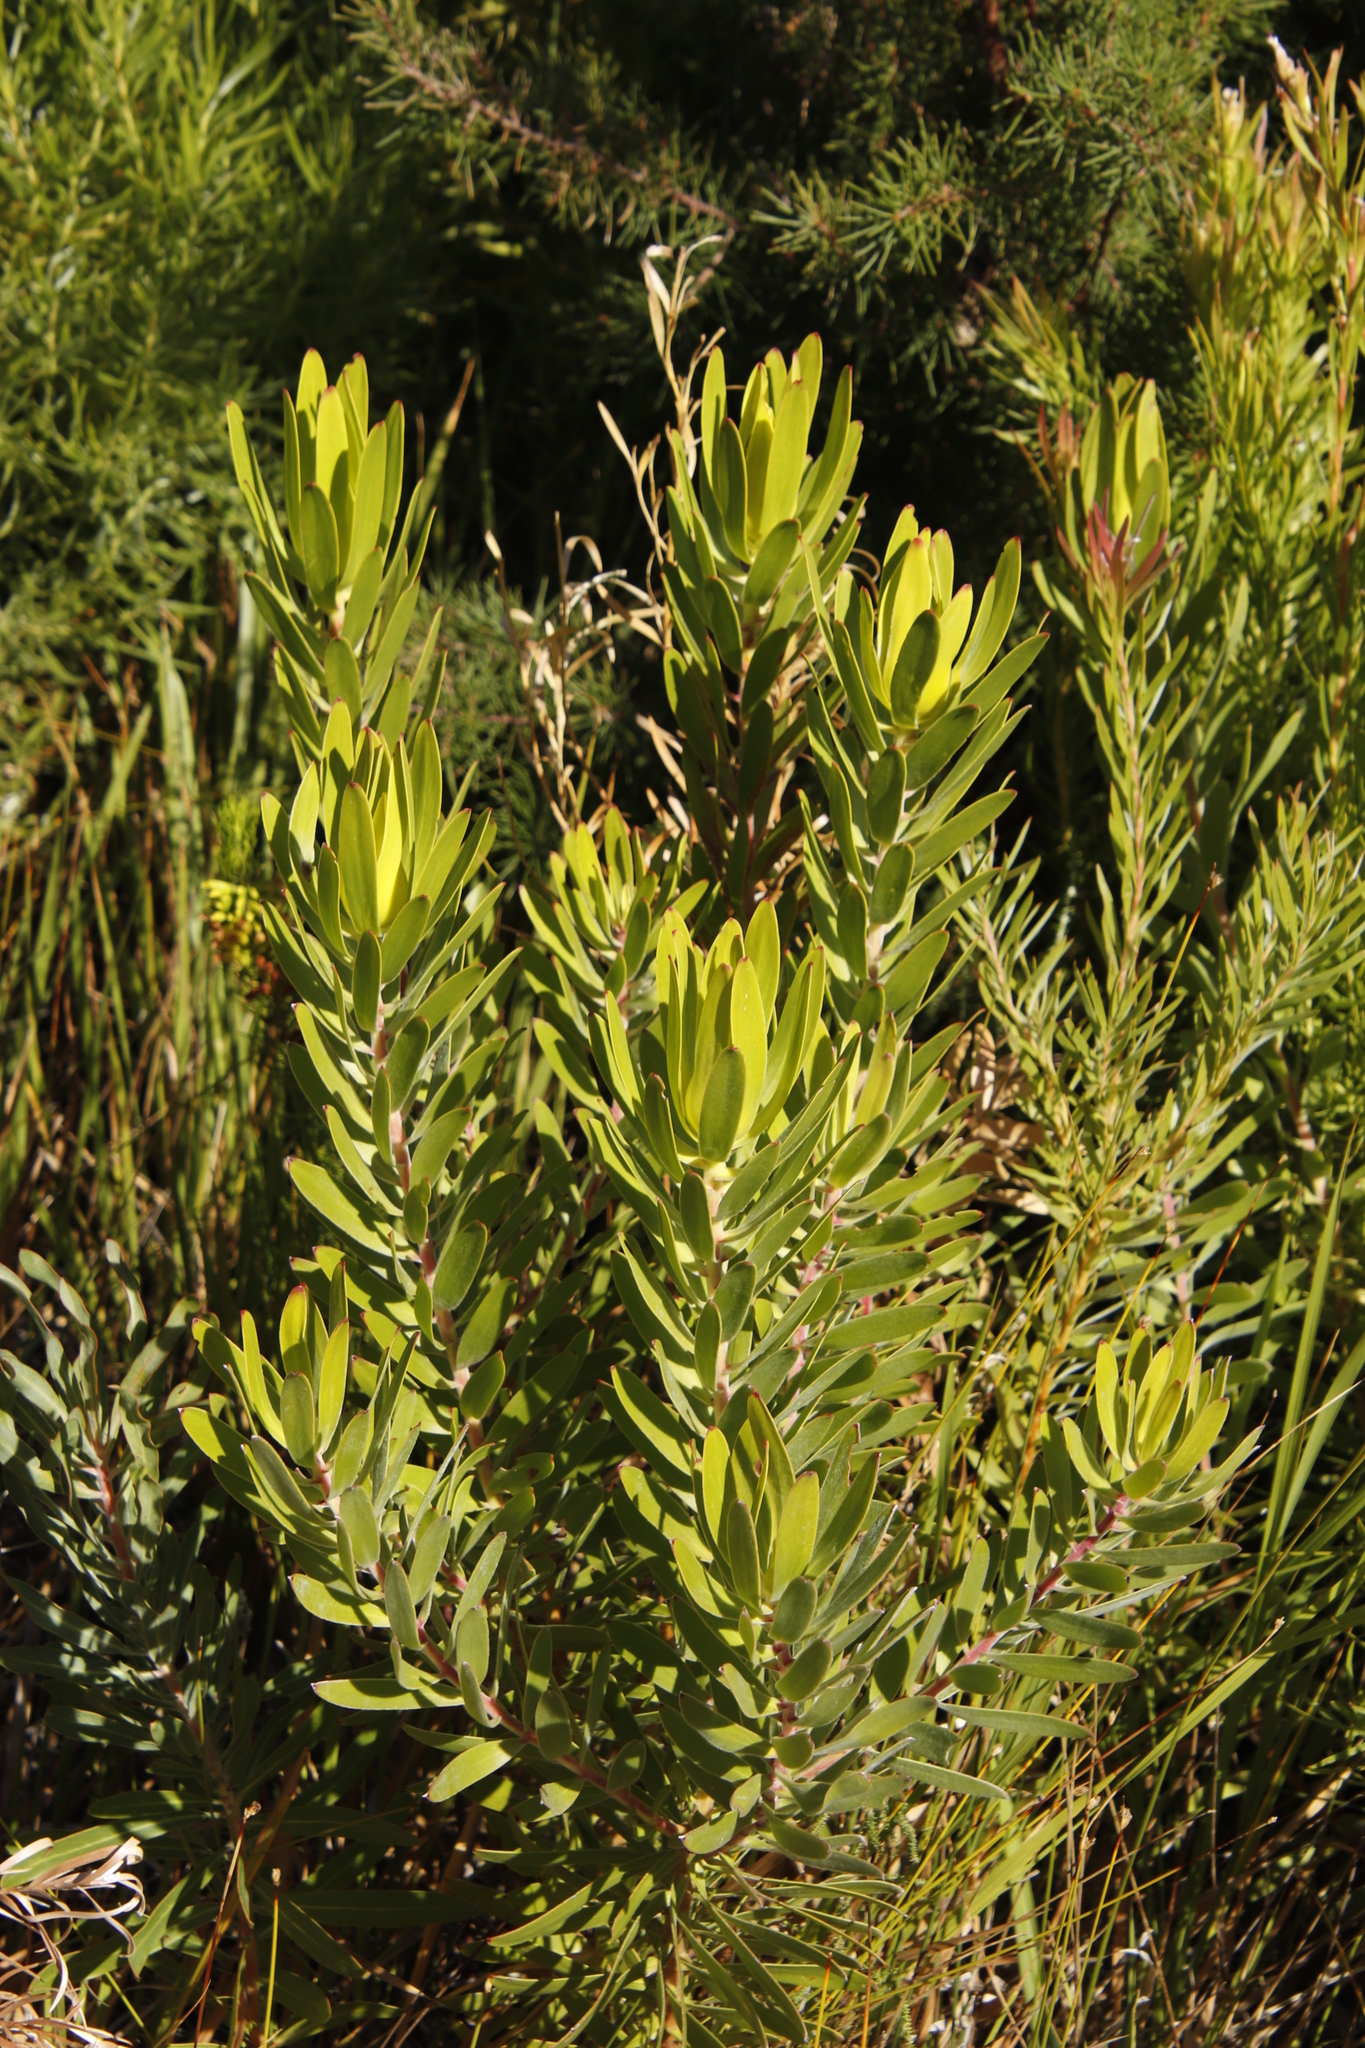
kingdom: Plantae
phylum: Tracheophyta
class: Magnoliopsida
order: Proteales
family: Proteaceae
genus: Leucadendron
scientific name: Leucadendron laureolum
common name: Golden sunshinebush
